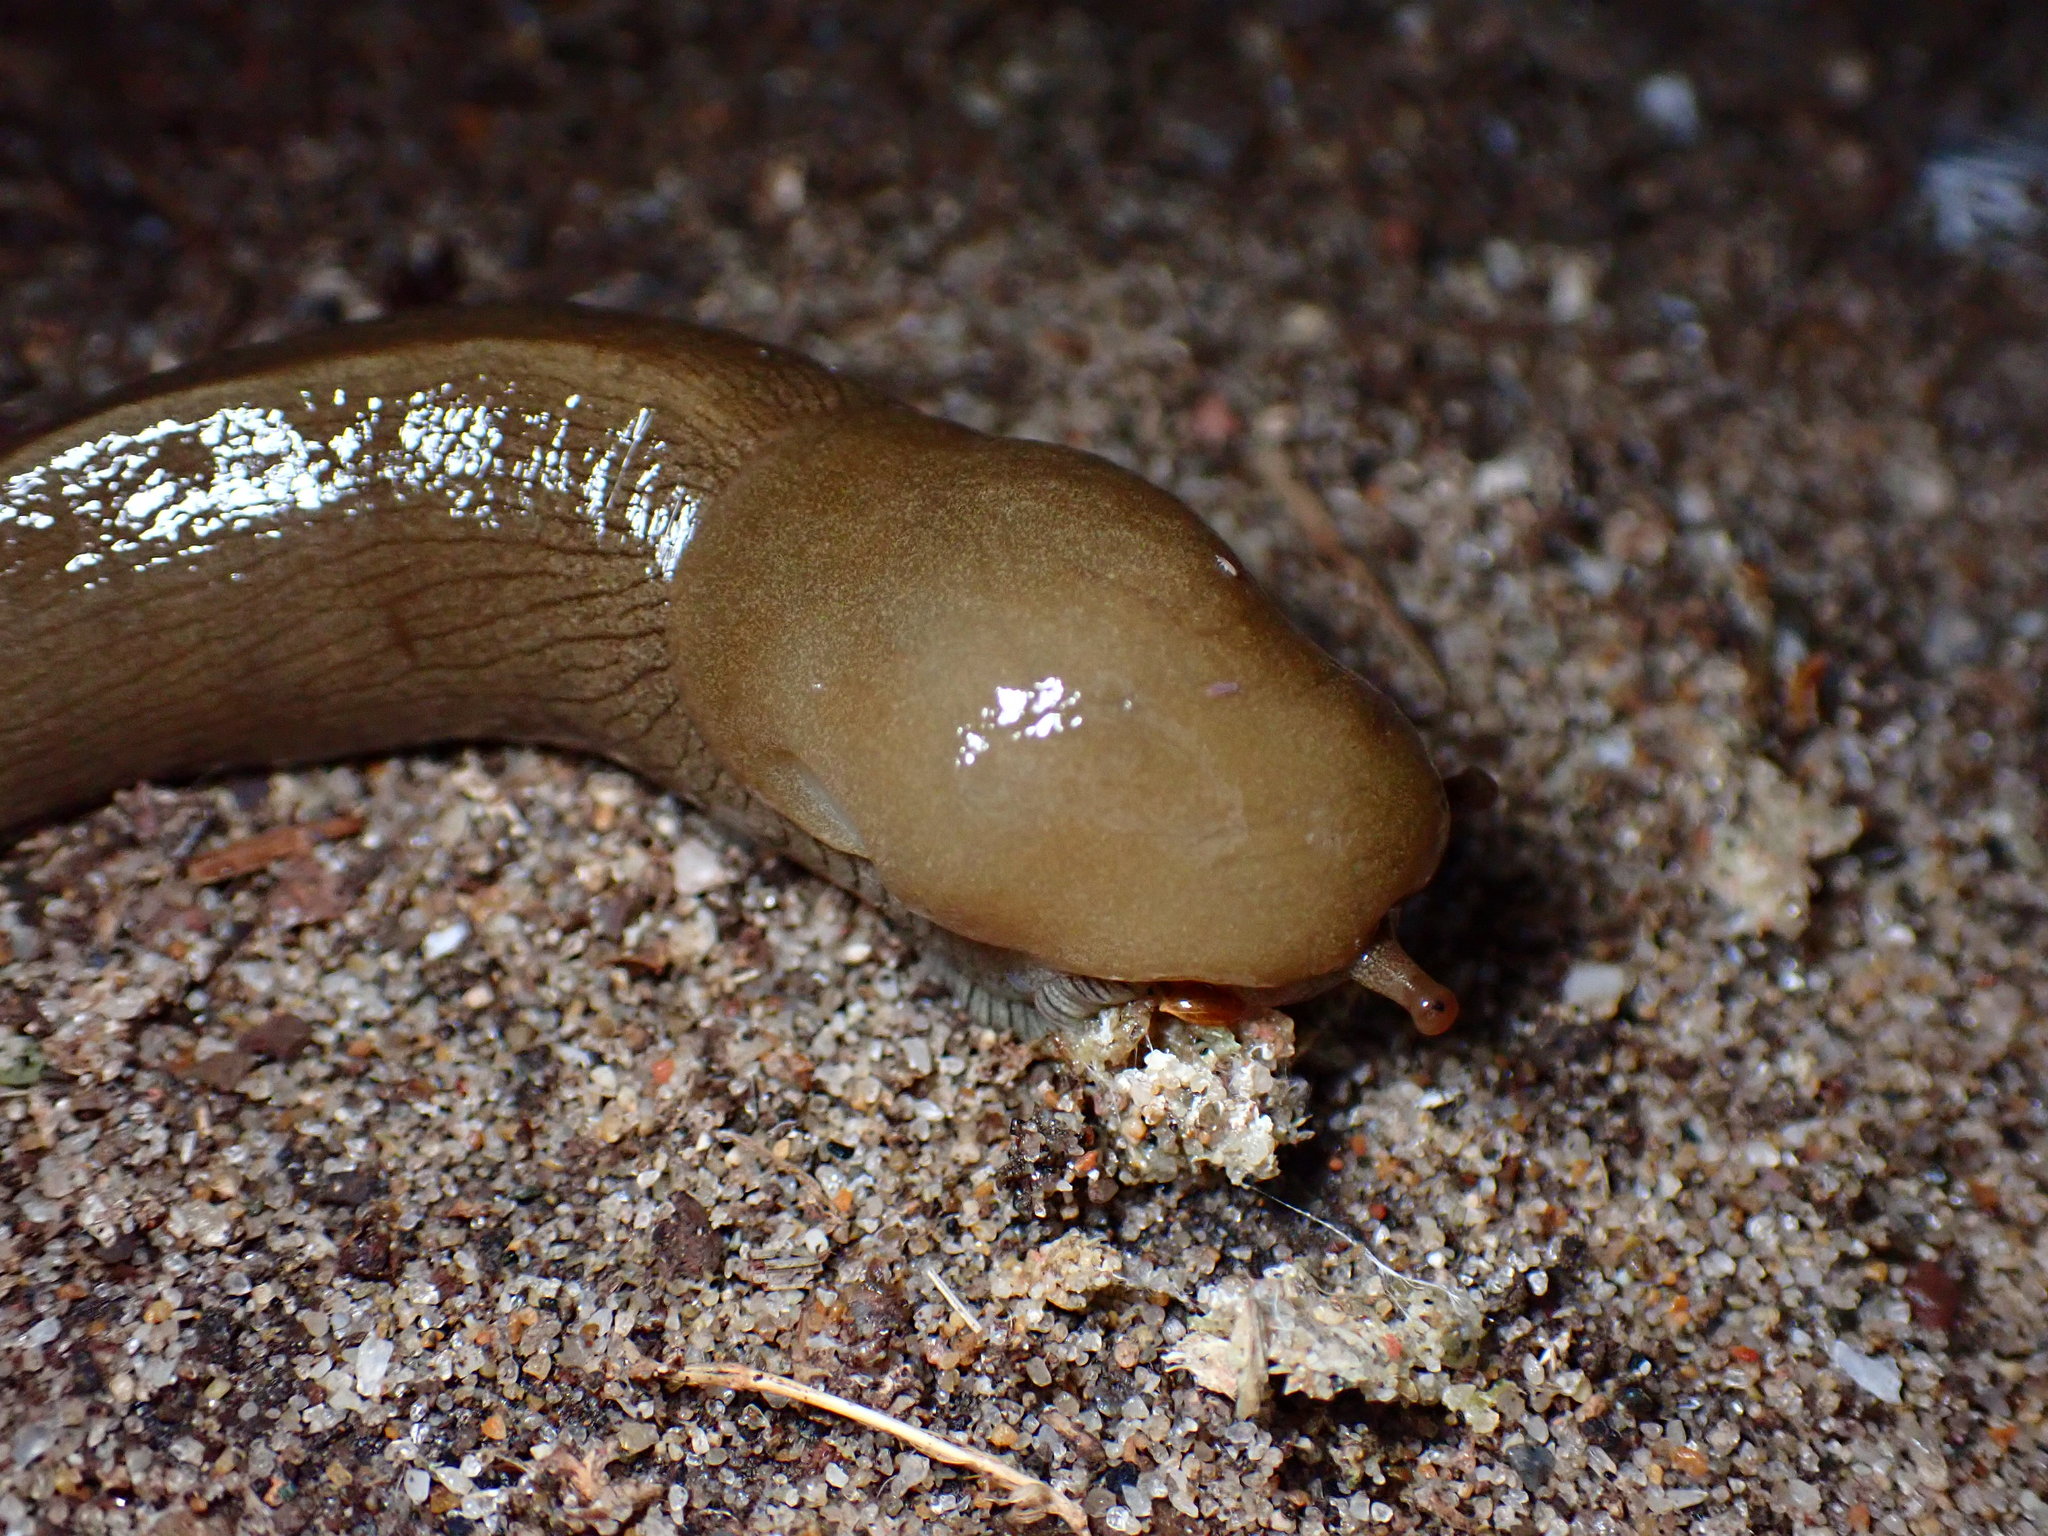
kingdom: Animalia
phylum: Mollusca
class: Gastropoda
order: Stylommatophora
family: Ariolimacidae
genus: Ariolimax
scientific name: Ariolimax buttoni
